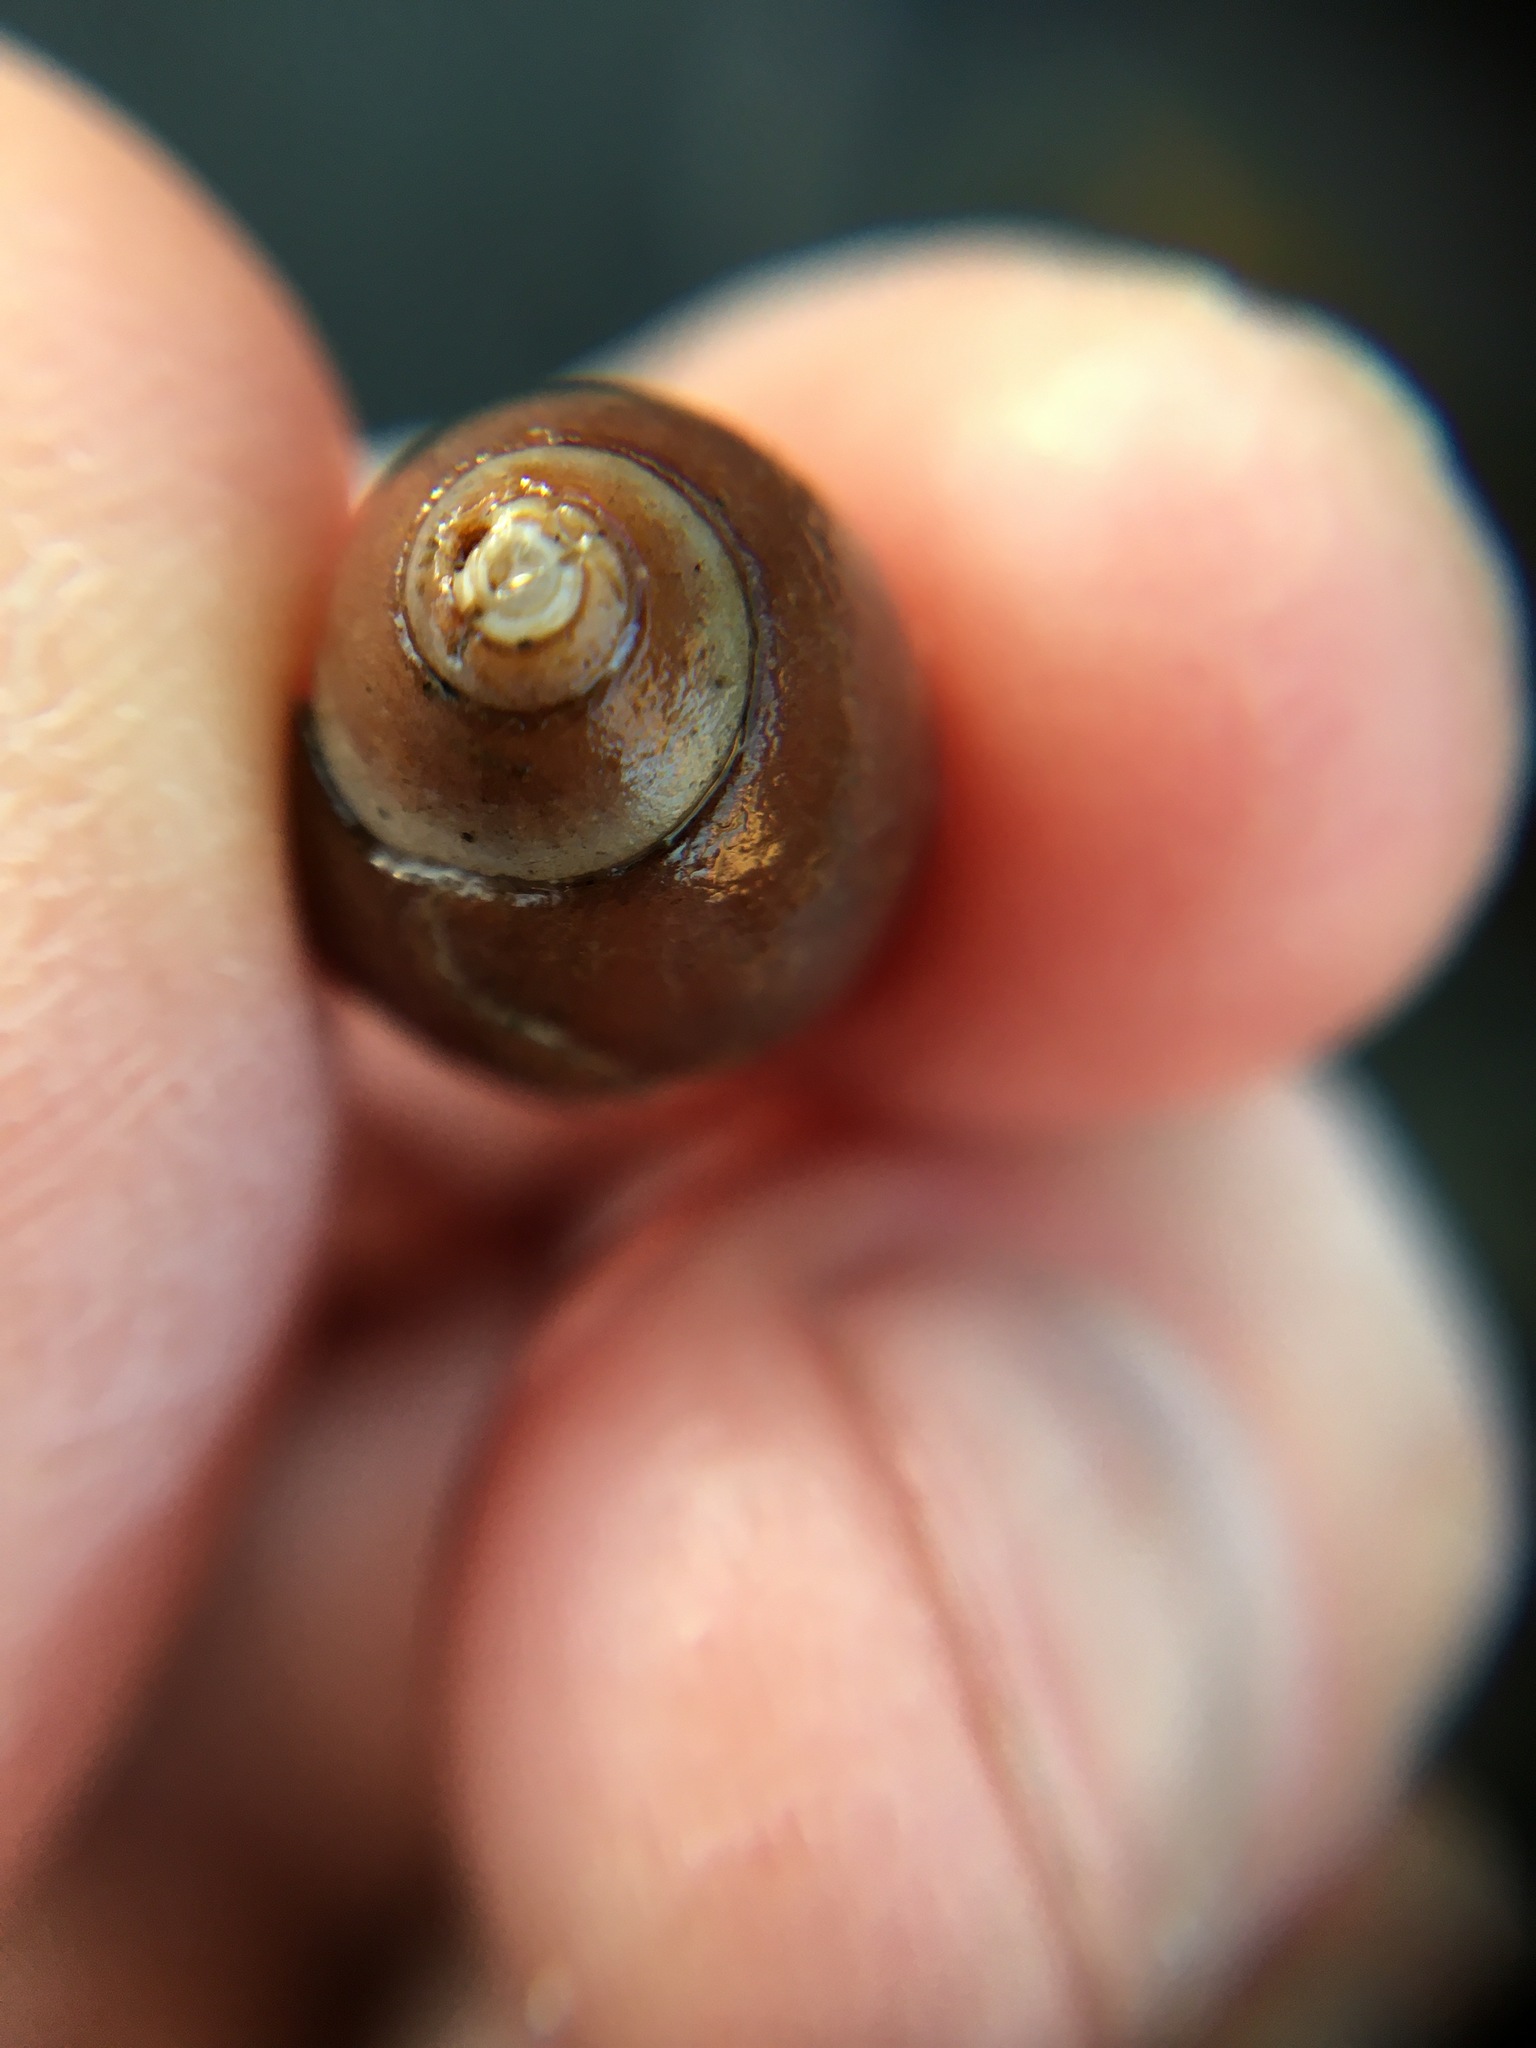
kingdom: Animalia
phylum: Mollusca
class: Gastropoda
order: Neogastropoda
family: Olividae
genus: Callianax
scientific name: Callianax biplicata
